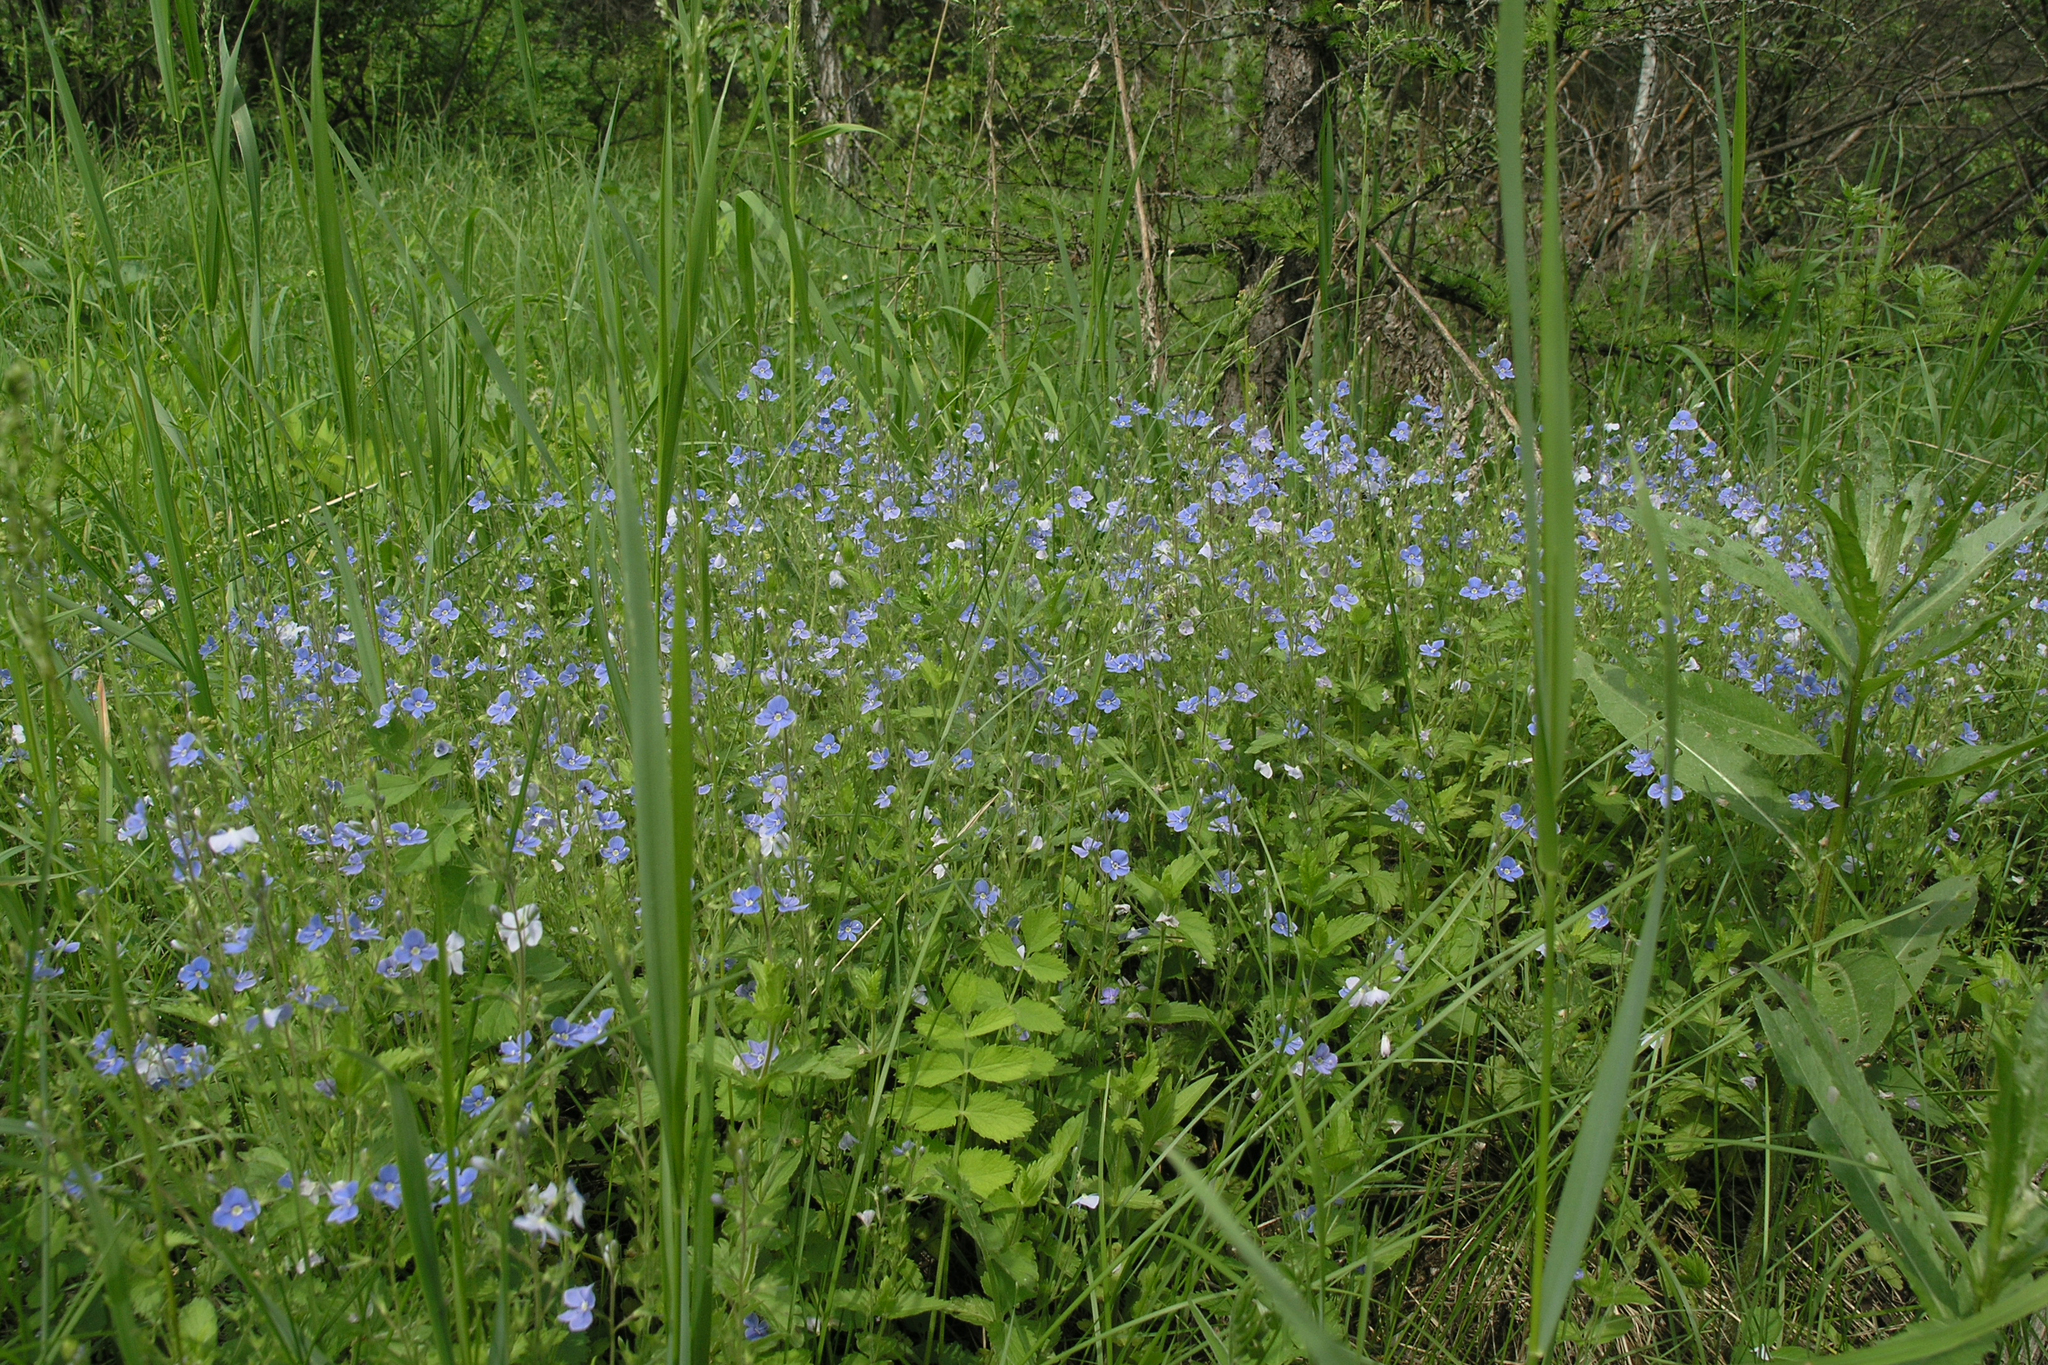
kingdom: Plantae
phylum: Tracheophyta
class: Magnoliopsida
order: Lamiales
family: Plantaginaceae
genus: Veronica
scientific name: Veronica chamaedrys
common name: Germander speedwell
